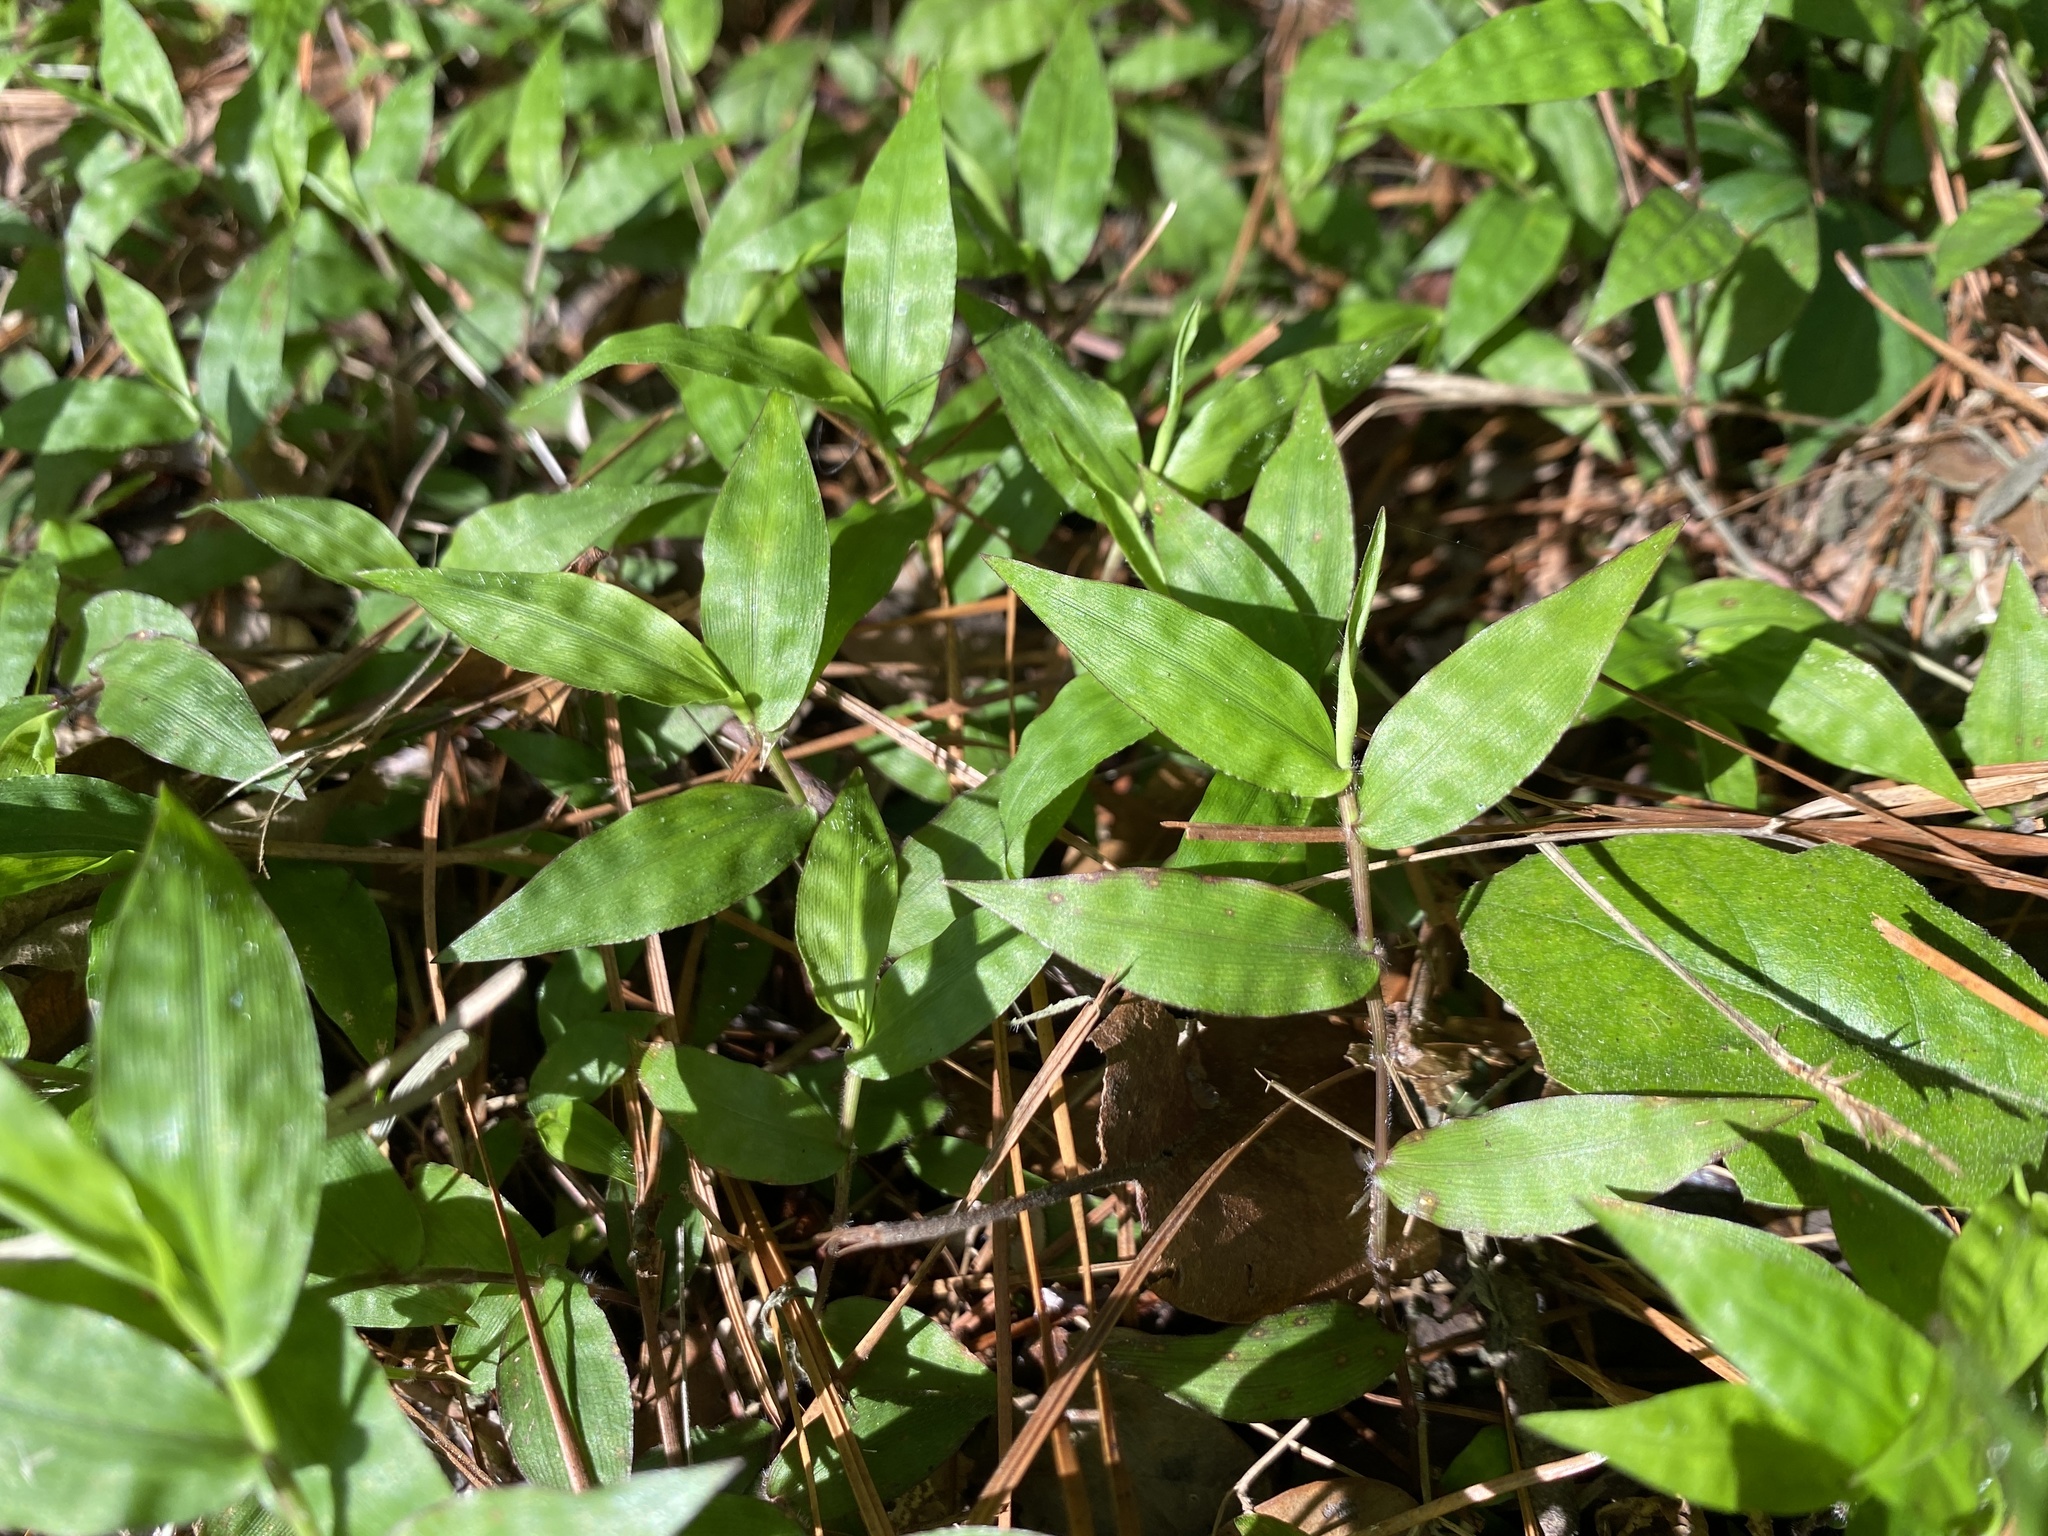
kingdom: Plantae
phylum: Tracheophyta
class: Liliopsida
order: Poales
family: Poaceae
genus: Oplismenus
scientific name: Oplismenus hirtellus
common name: Basketgrass
